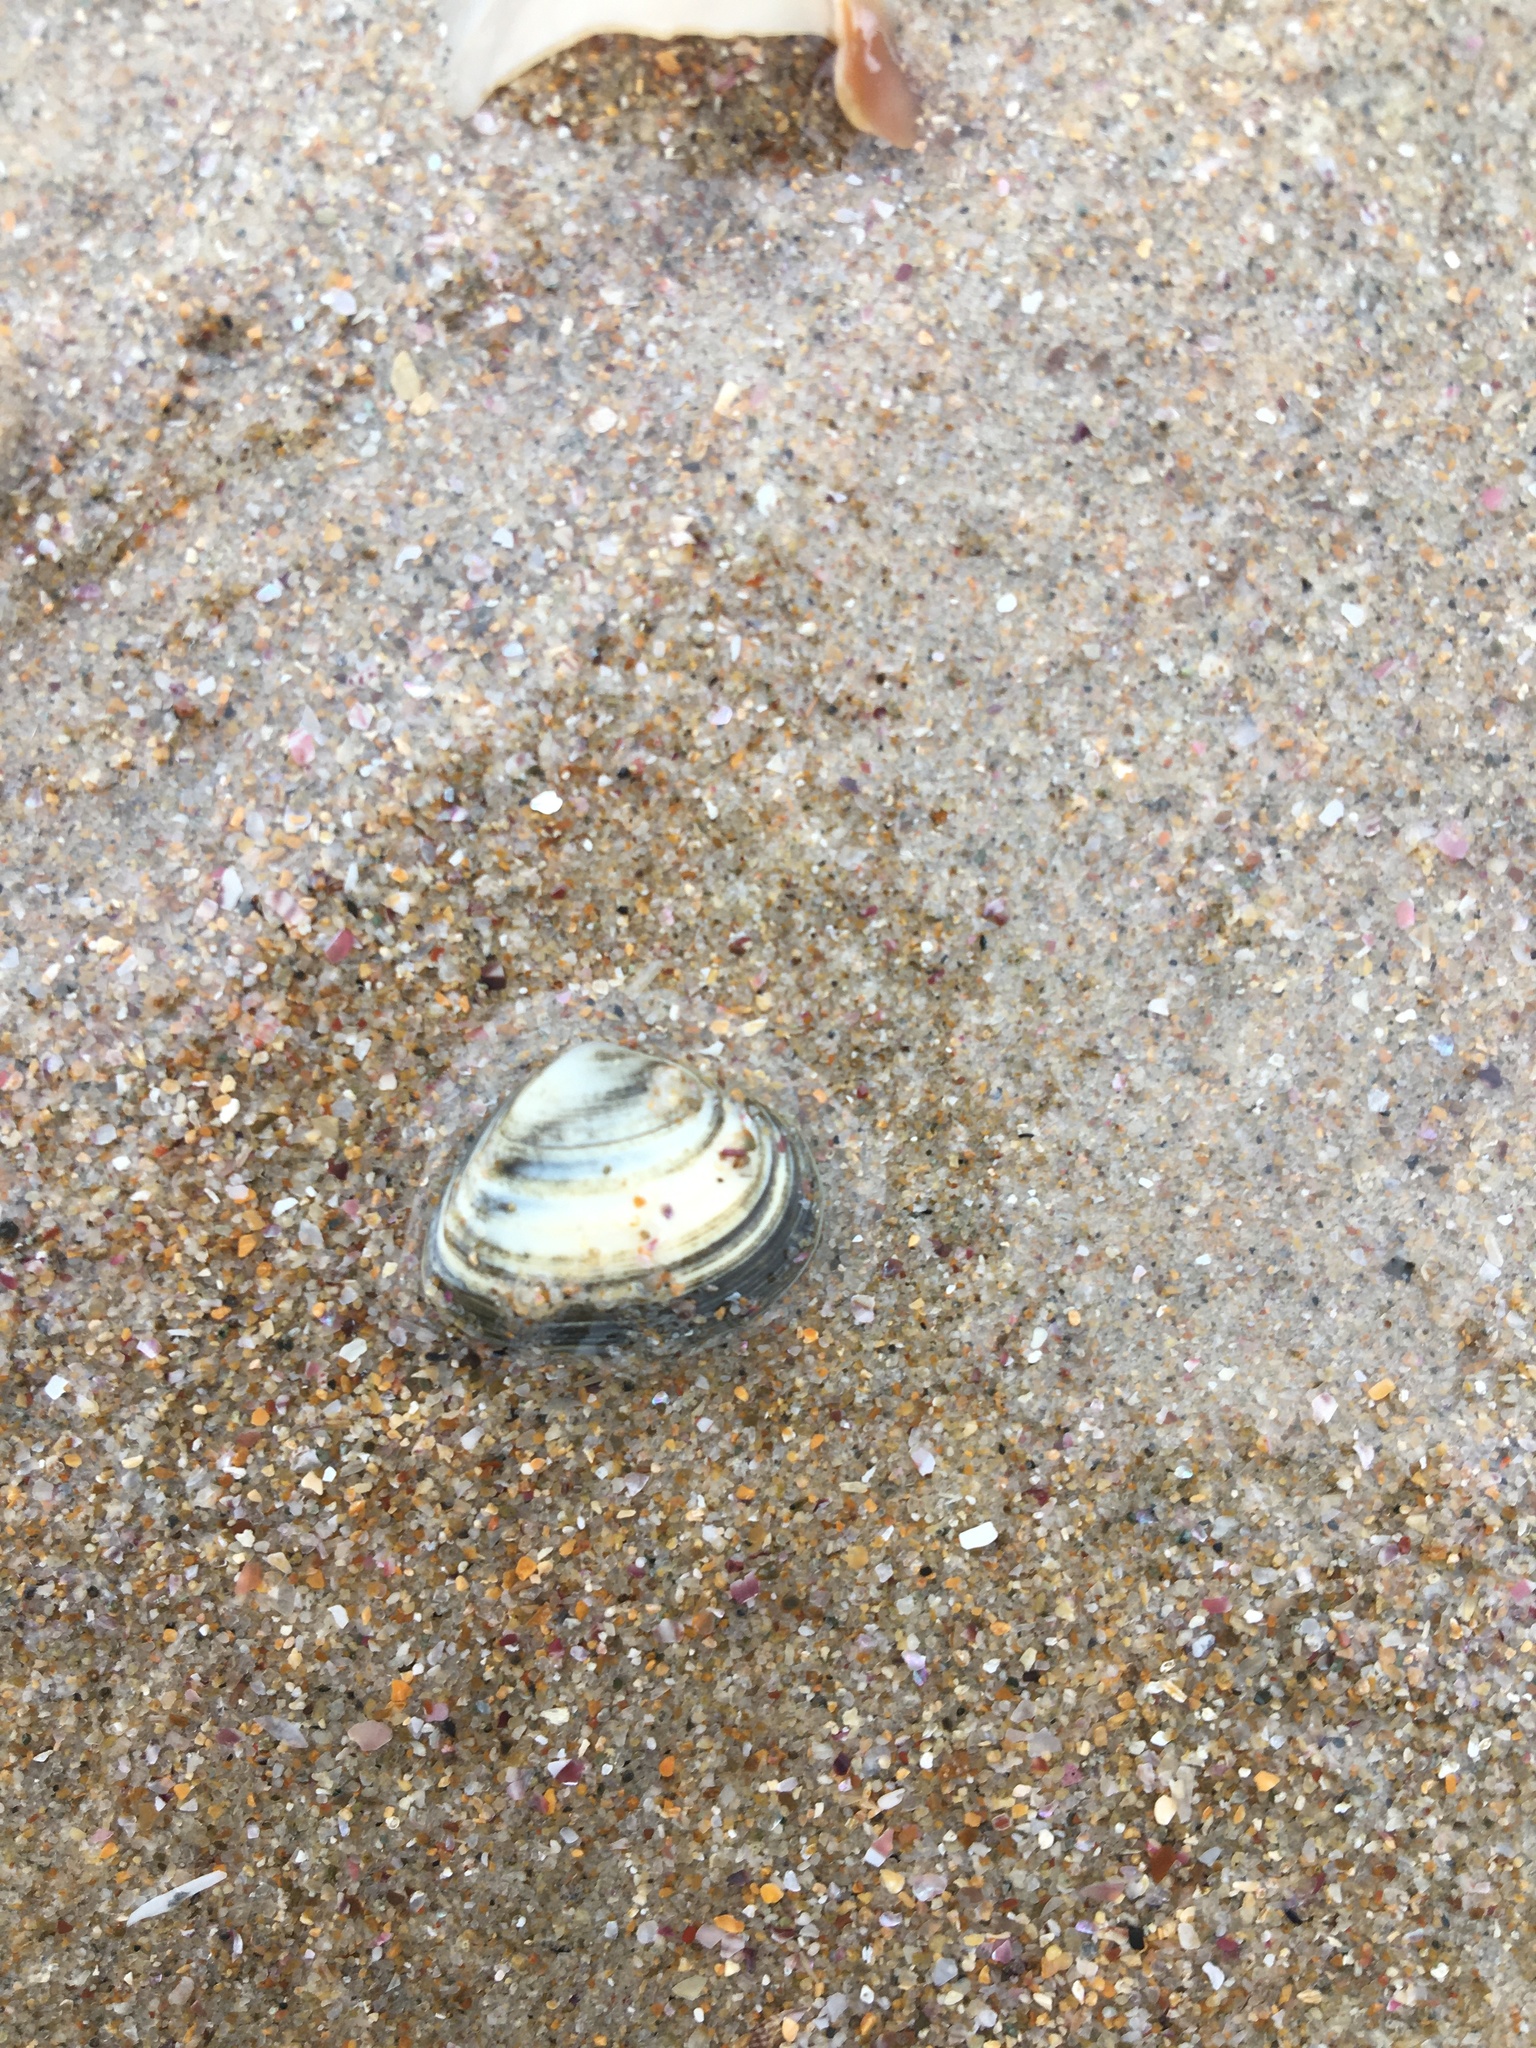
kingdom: Animalia
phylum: Mollusca
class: Bivalvia
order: Venerida
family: Mactridae
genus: Spisula
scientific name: Spisula trigonella
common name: Trigonal mactra
